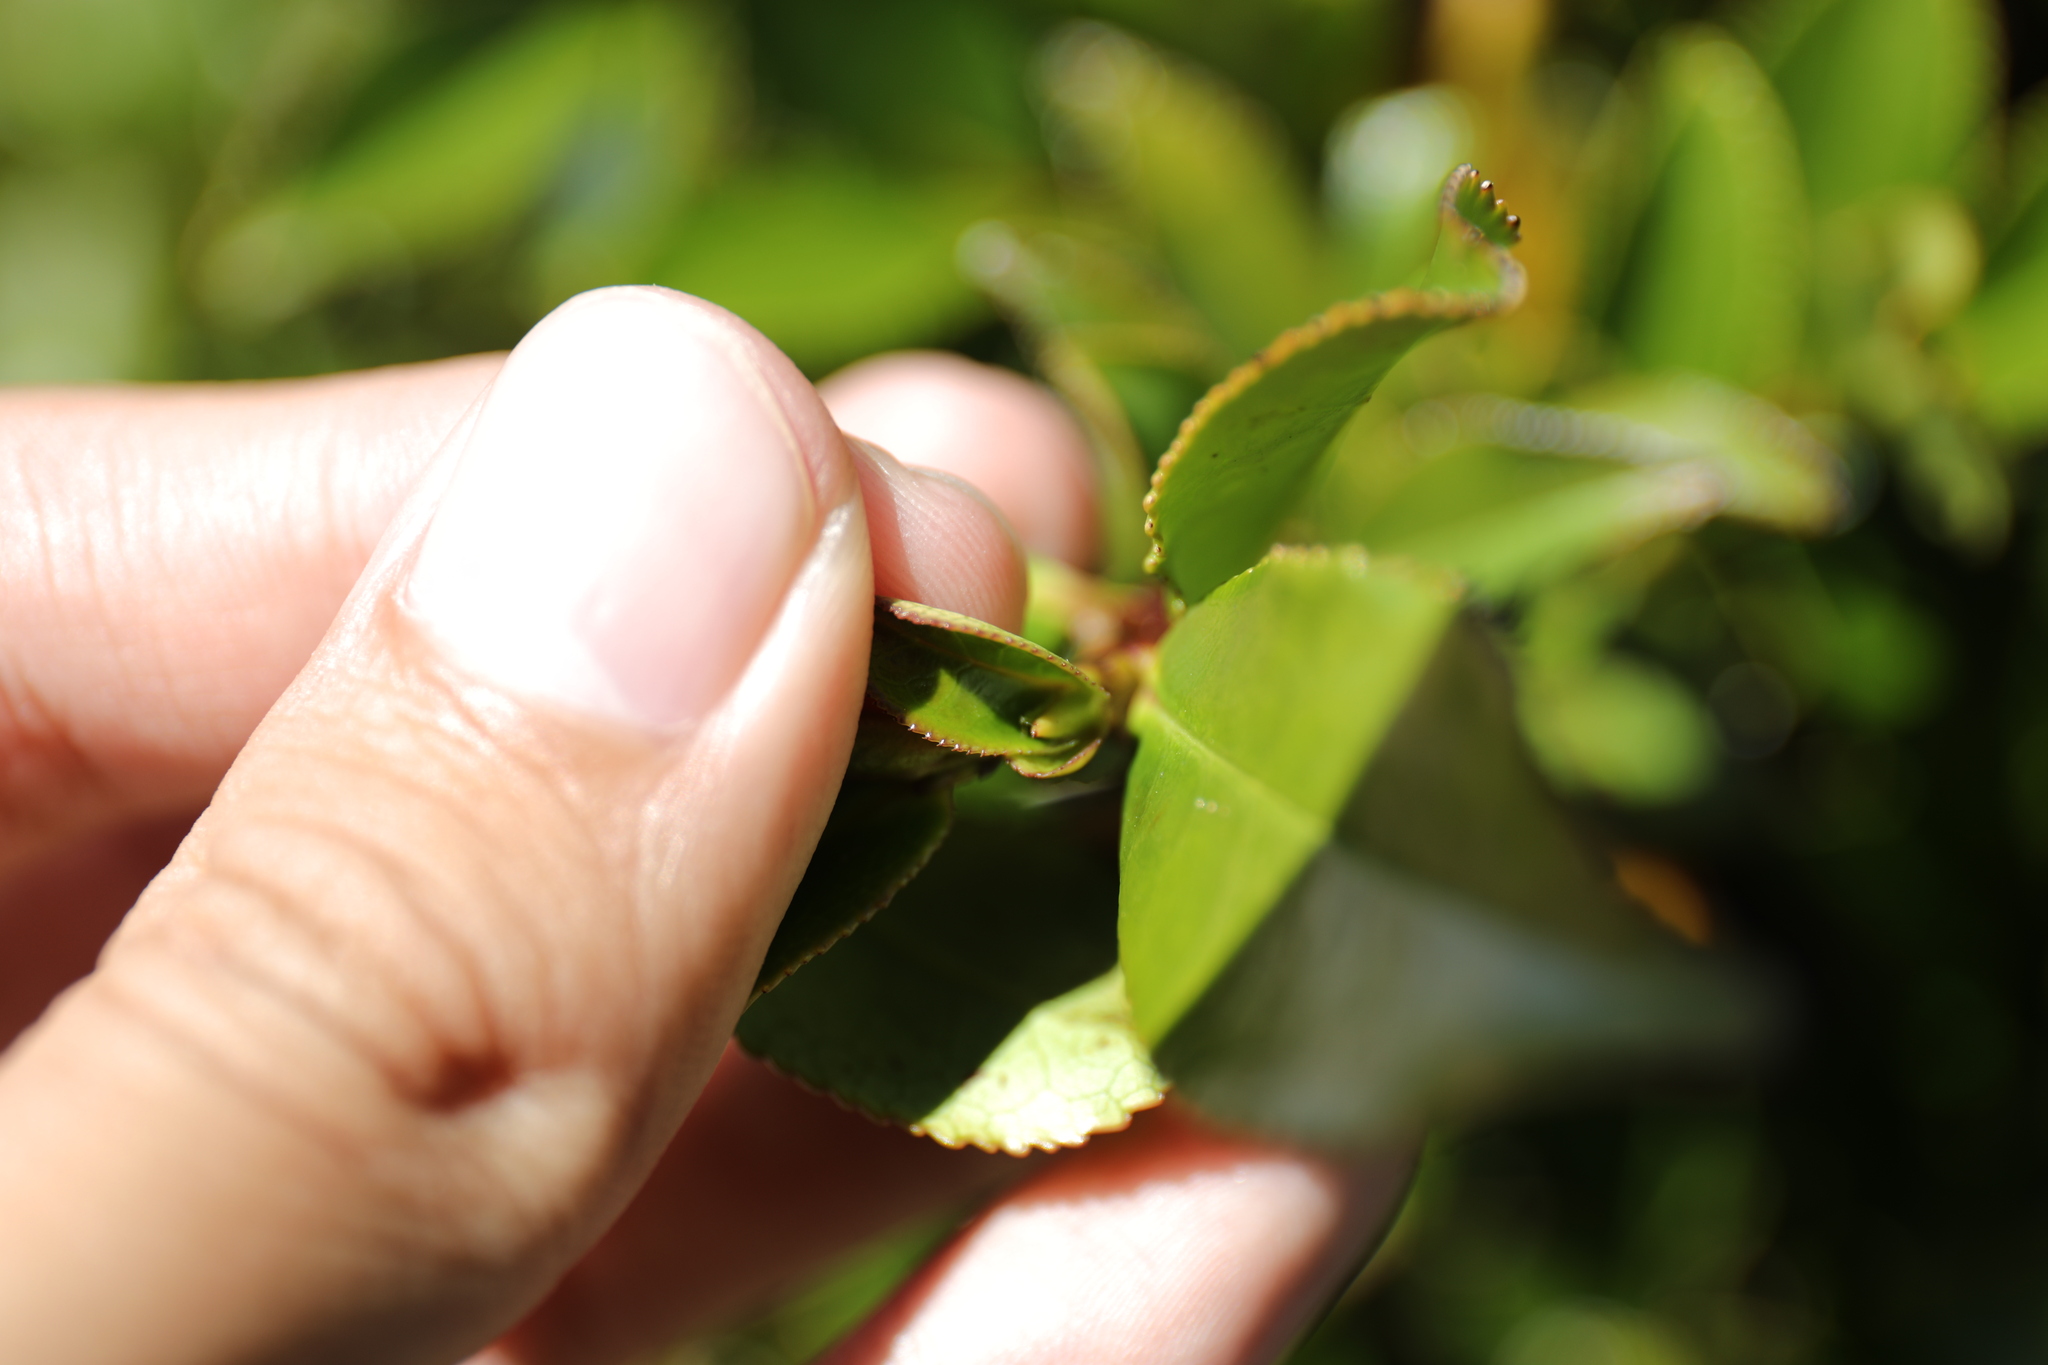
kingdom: Plantae
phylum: Tracheophyta
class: Magnoliopsida
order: Ericales
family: Pentaphylacaceae
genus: Eurya
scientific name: Eurya glaberrima
